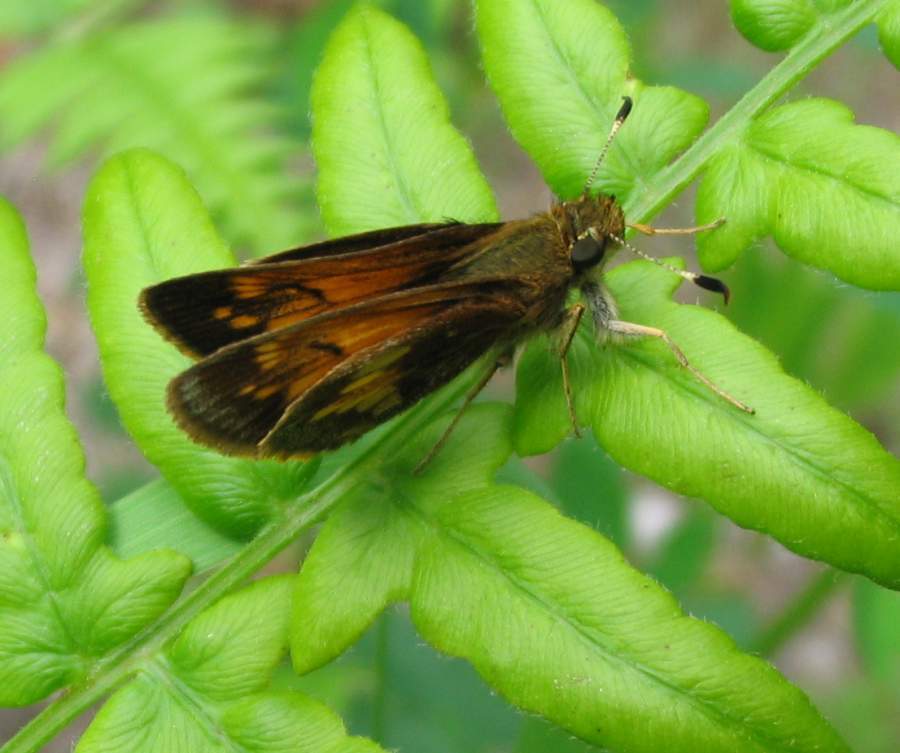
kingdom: Animalia
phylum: Arthropoda
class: Insecta
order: Lepidoptera
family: Hesperiidae
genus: Lon
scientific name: Lon hobomok
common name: Hobomok skipper
